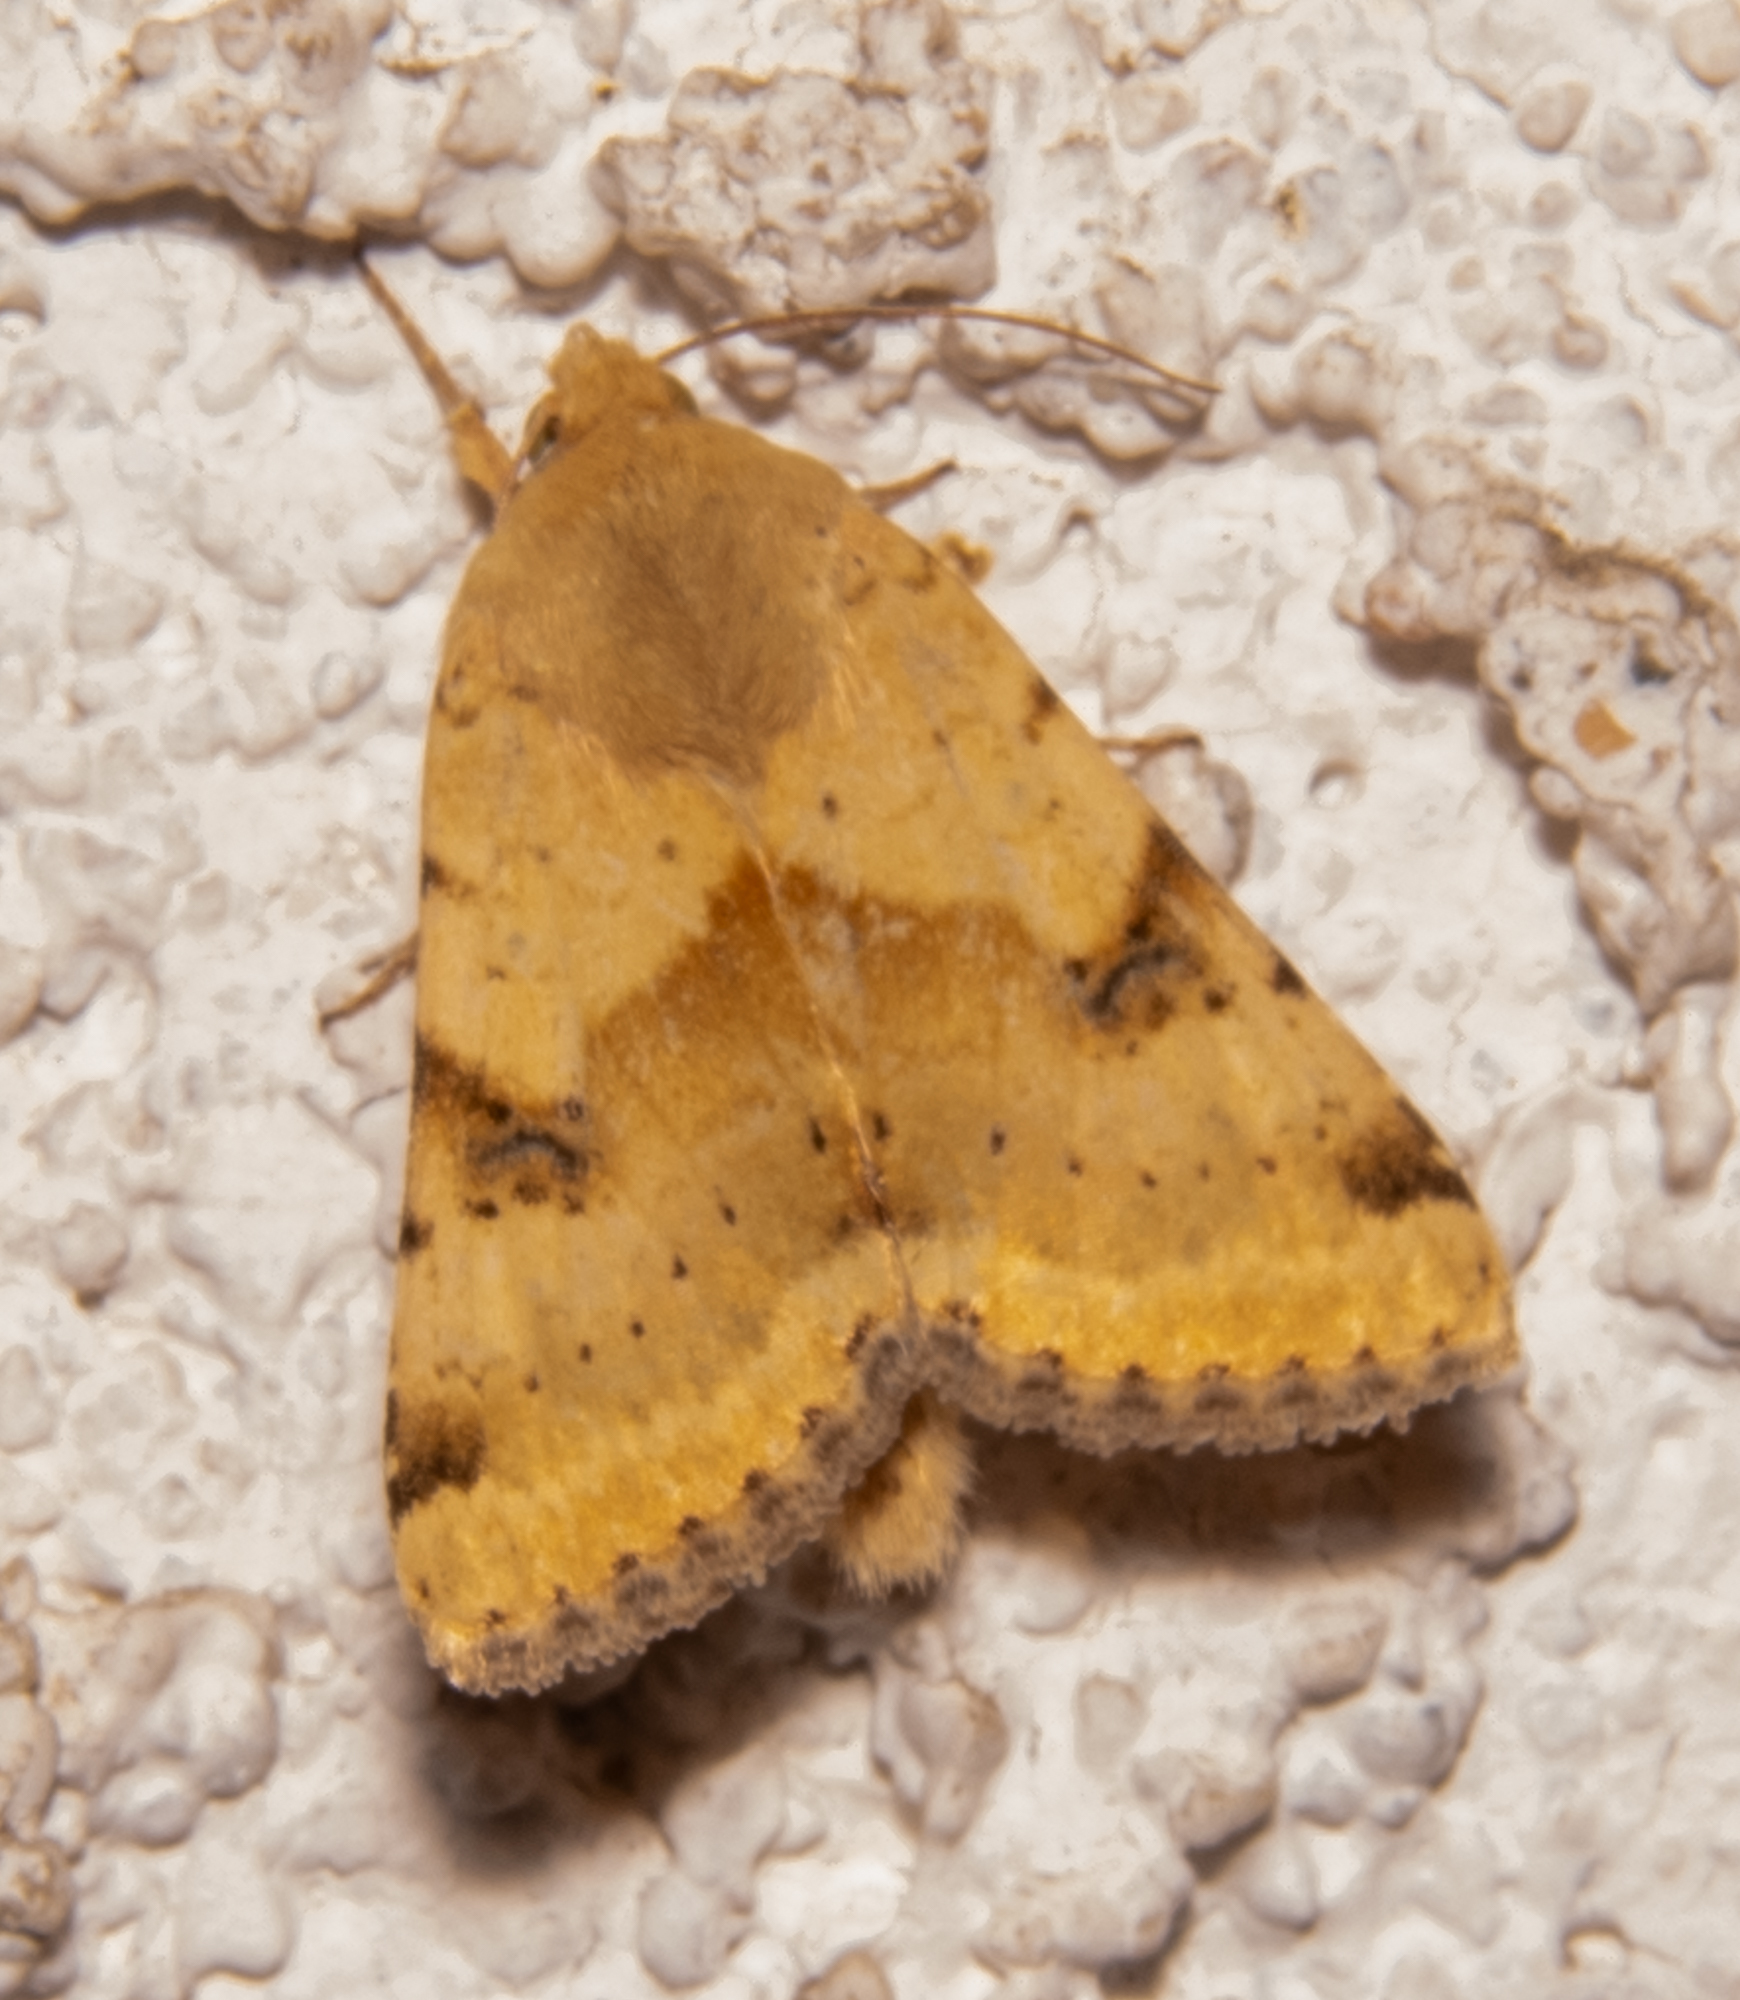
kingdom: Animalia
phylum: Arthropoda
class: Insecta
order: Lepidoptera
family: Noctuidae
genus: Heliothis
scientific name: Heliothis phloxiphaga
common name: Darker spotted straw moth
